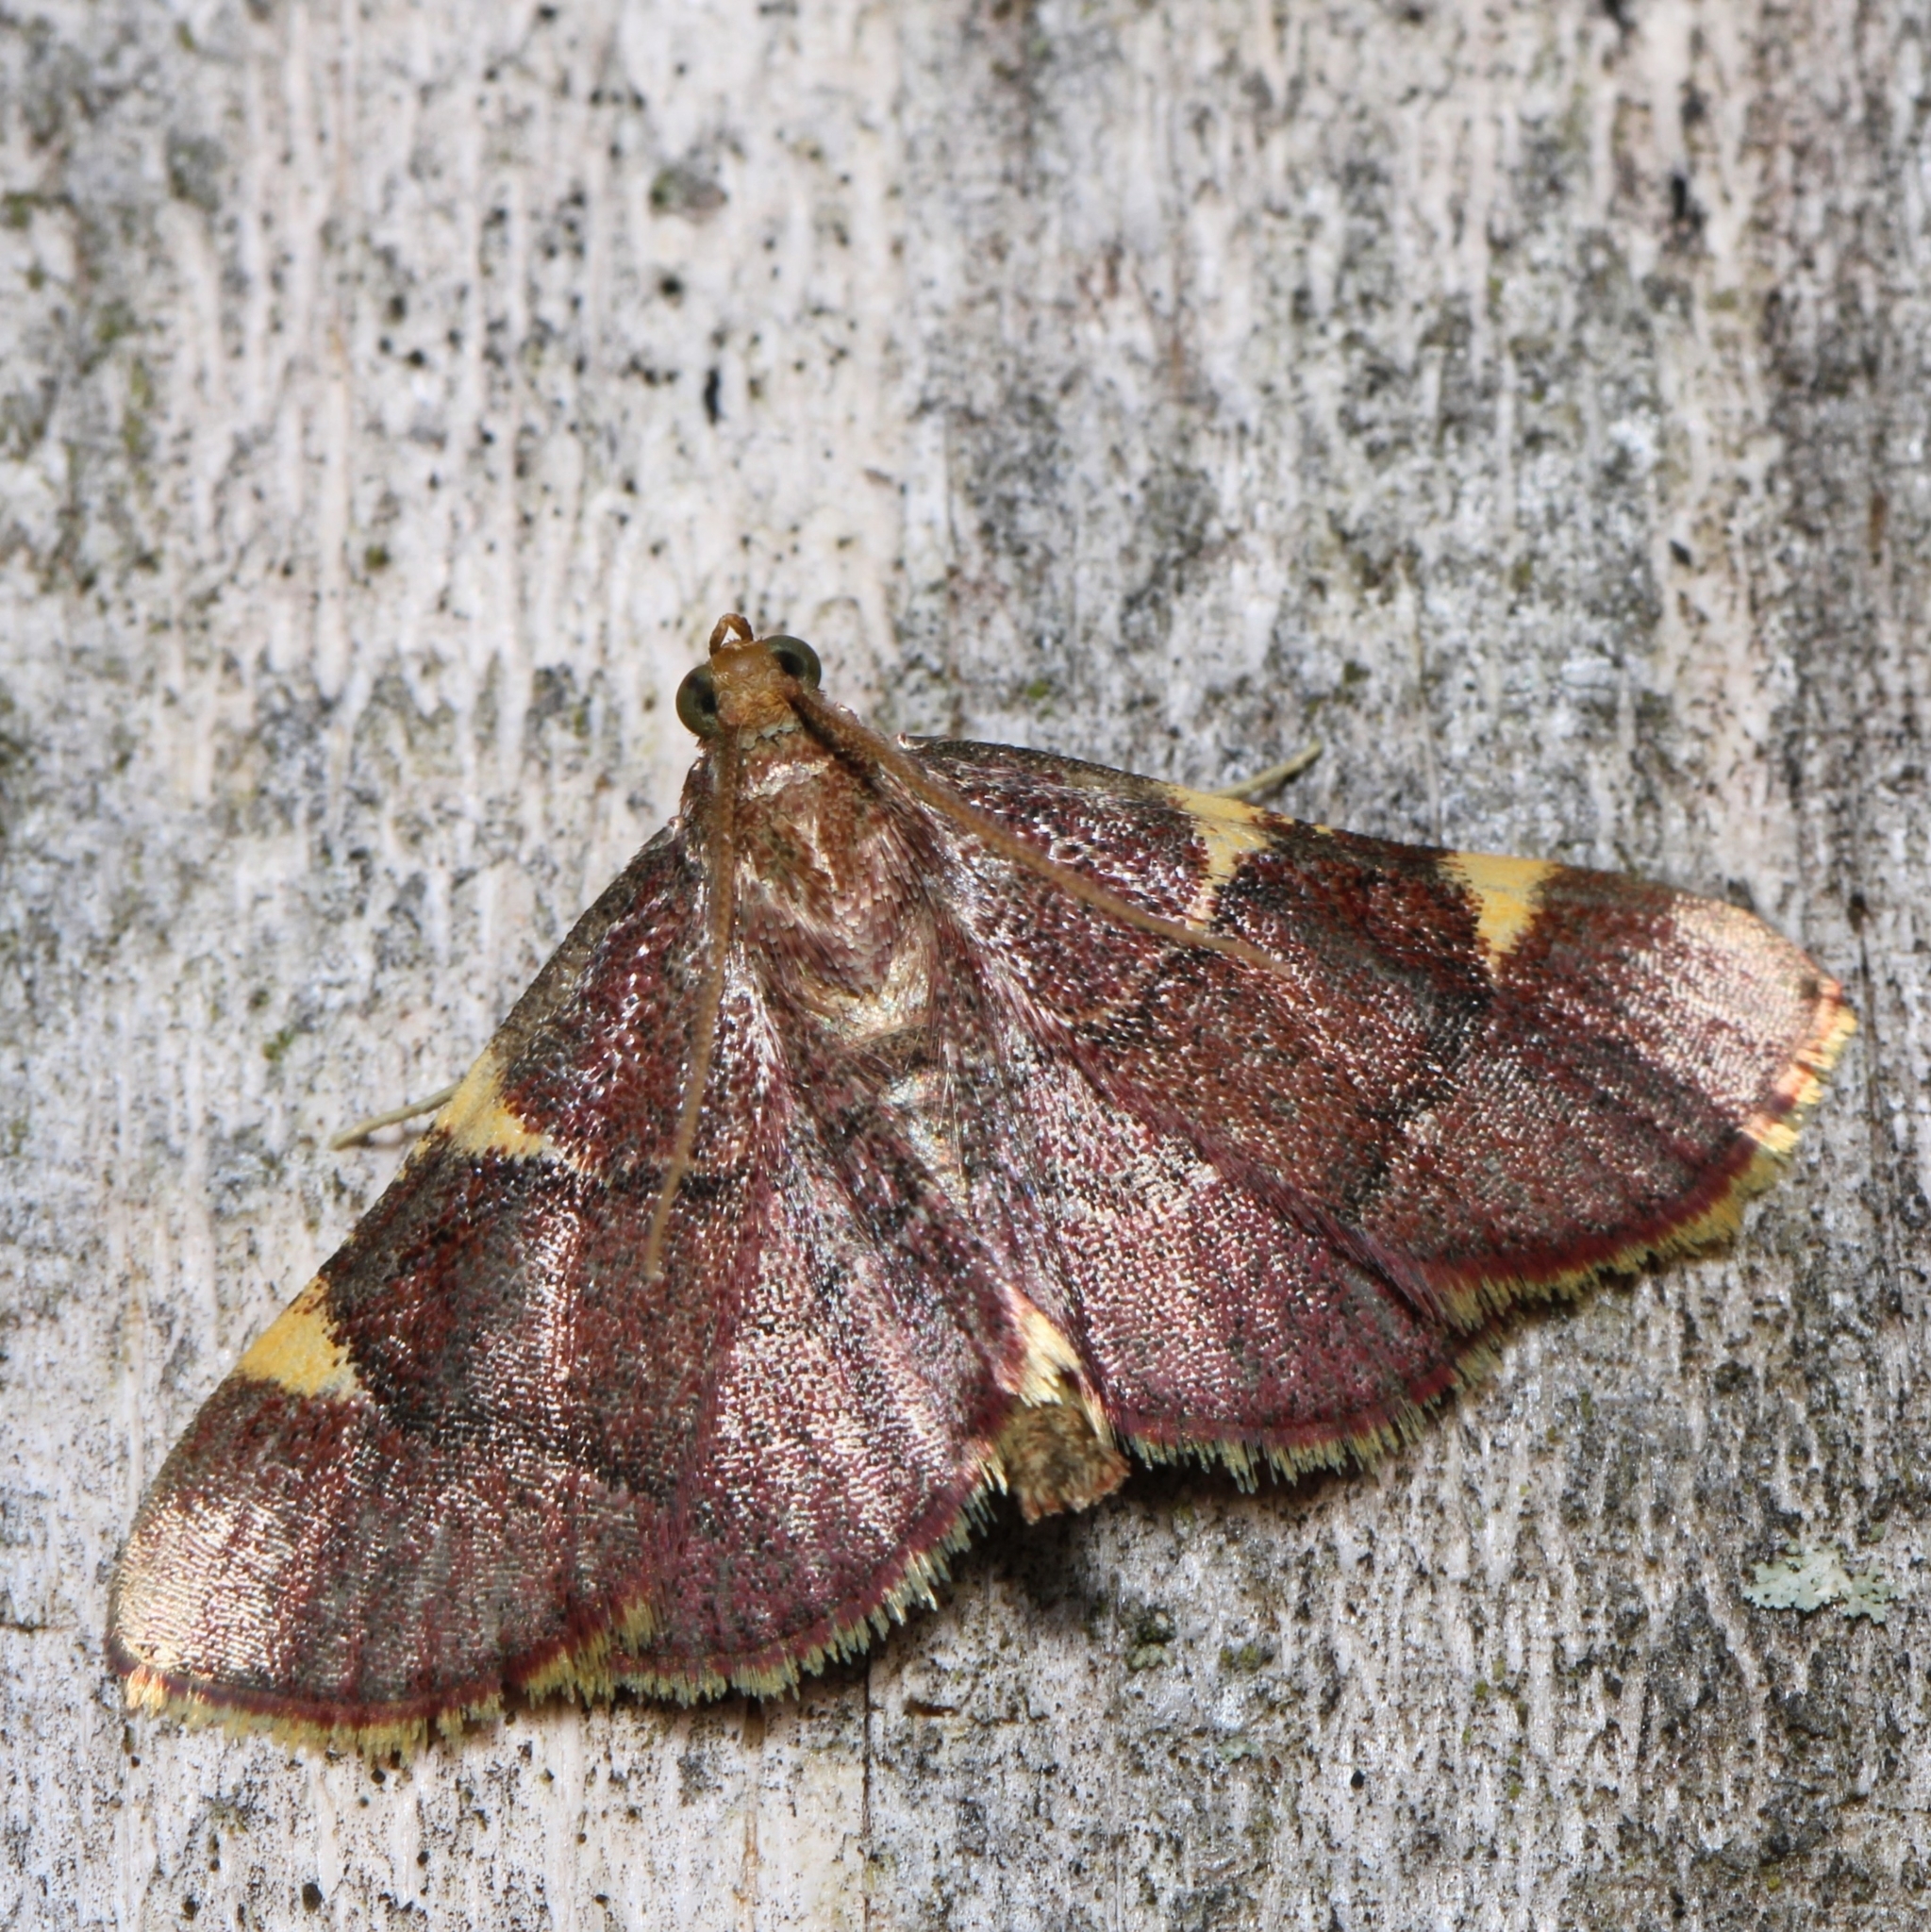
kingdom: Animalia
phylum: Arthropoda
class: Insecta
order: Lepidoptera
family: Pyralidae
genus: Hypsopygia
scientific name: Hypsopygia olinalis
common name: Yellow-fringed dolichomia moth
